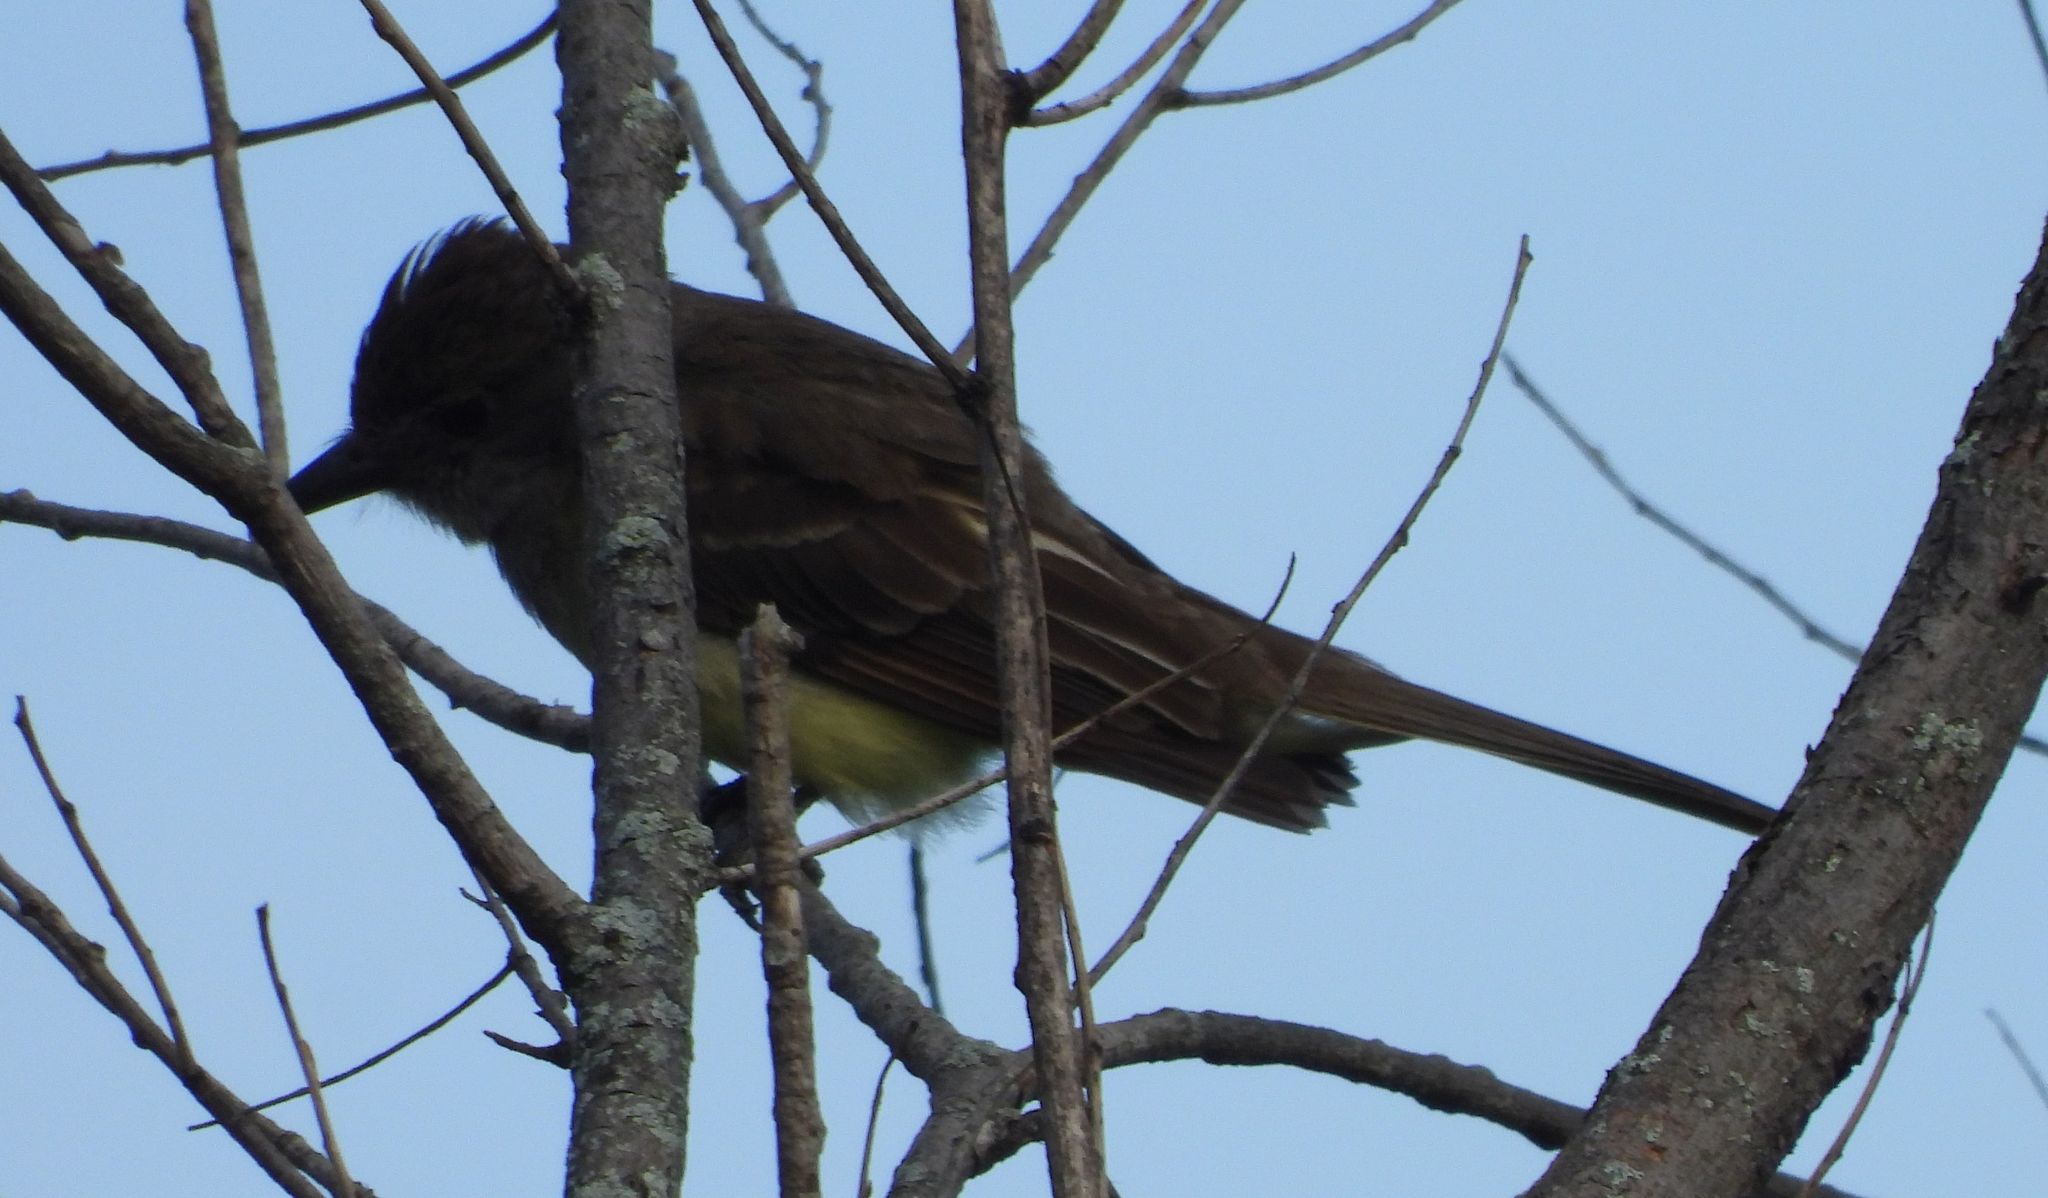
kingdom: Animalia
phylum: Chordata
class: Aves
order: Passeriformes
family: Tyrannidae
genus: Myiarchus
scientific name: Myiarchus crinitus
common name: Great crested flycatcher
